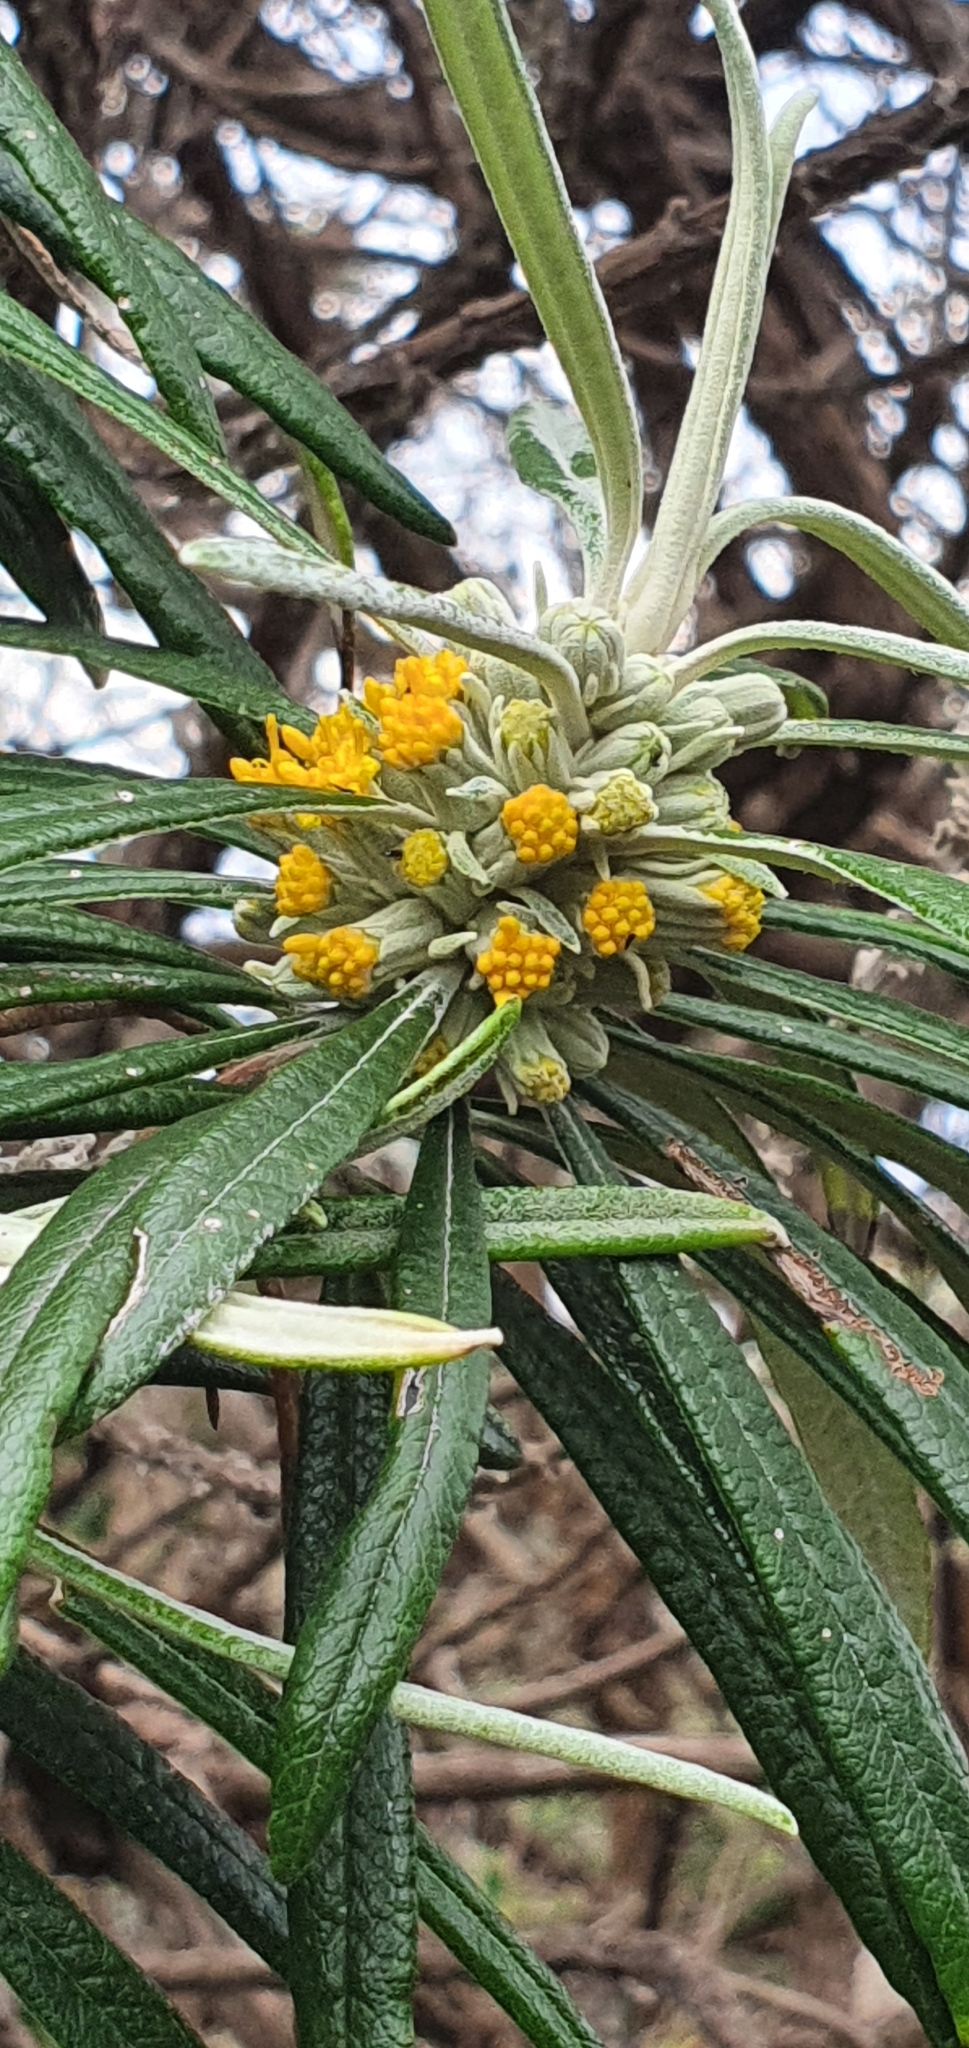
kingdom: Plantae
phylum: Tracheophyta
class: Magnoliopsida
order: Asterales
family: Asteraceae
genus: Bedfordia
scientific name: Bedfordia salicina
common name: Blanketleaf
